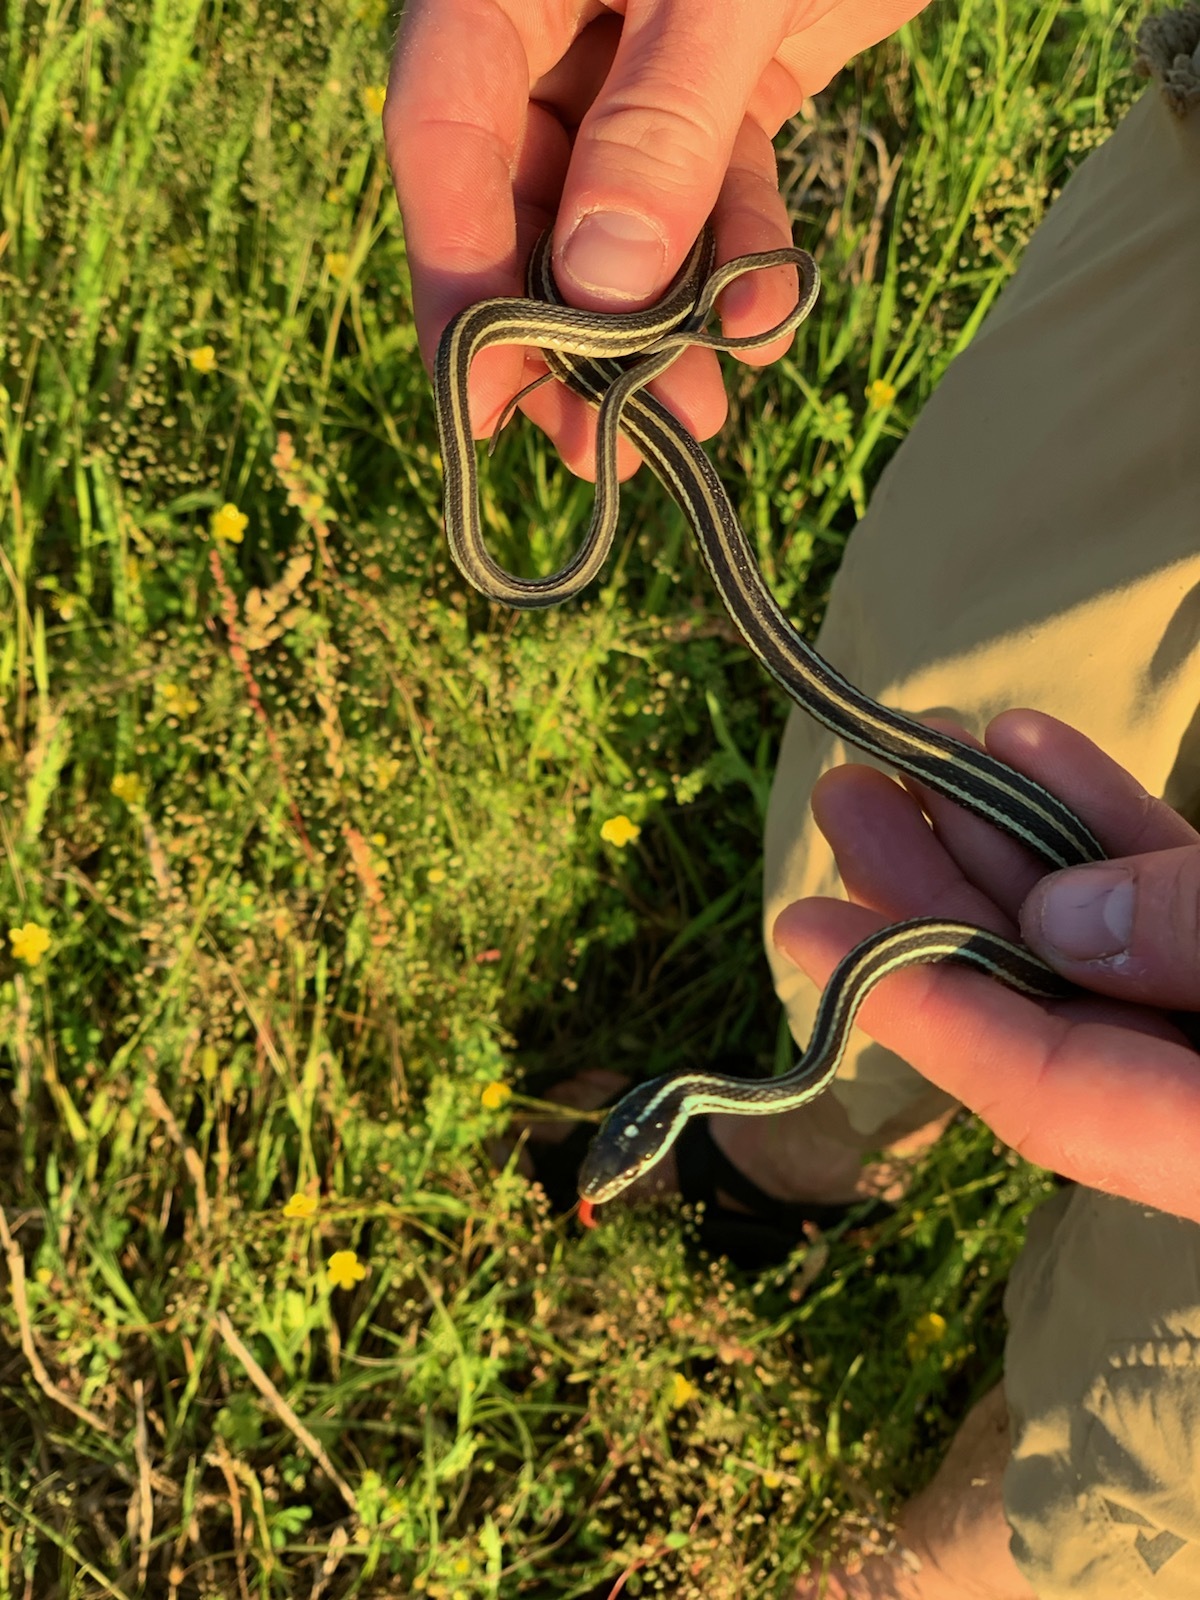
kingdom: Animalia
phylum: Chordata
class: Squamata
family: Colubridae
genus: Thamnophis
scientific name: Thamnophis proximus
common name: Western ribbon snake
